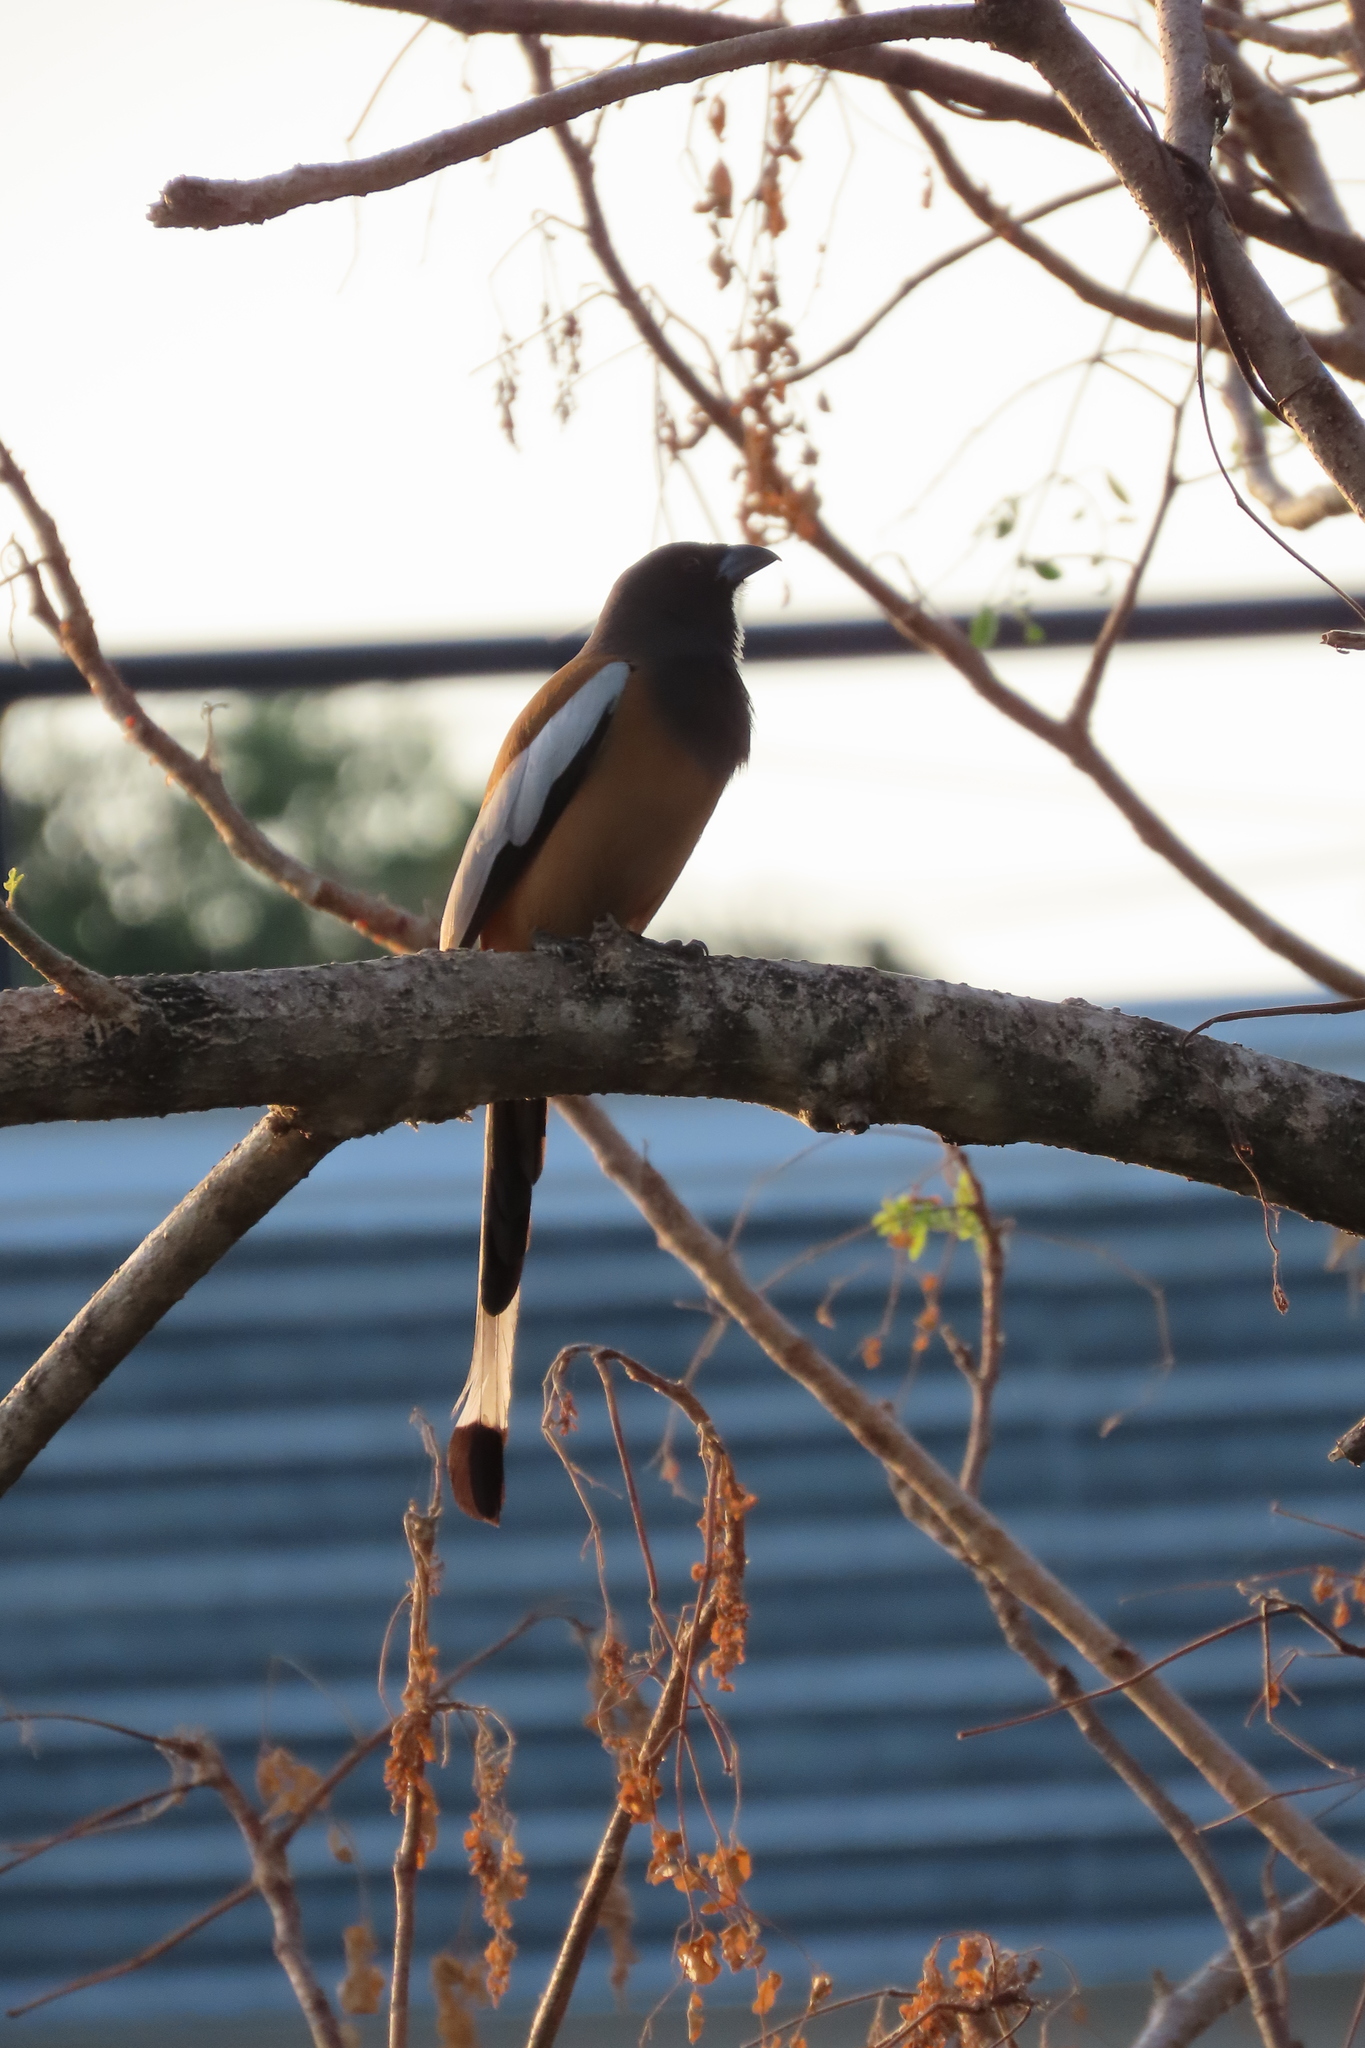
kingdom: Animalia
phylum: Chordata
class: Aves
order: Passeriformes
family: Corvidae
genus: Dendrocitta
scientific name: Dendrocitta vagabunda
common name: Rufous treepie
